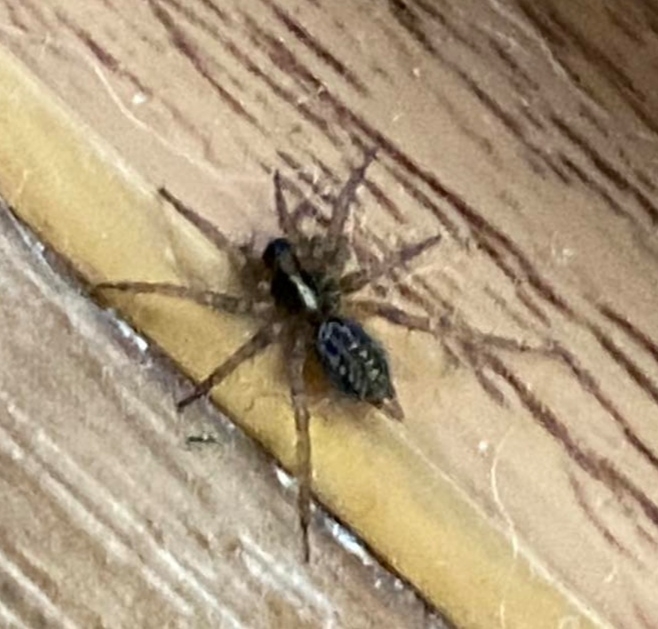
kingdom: Animalia
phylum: Arthropoda
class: Arachnida
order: Araneae
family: Agelenidae
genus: Maimuna
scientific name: Maimuna vestita
